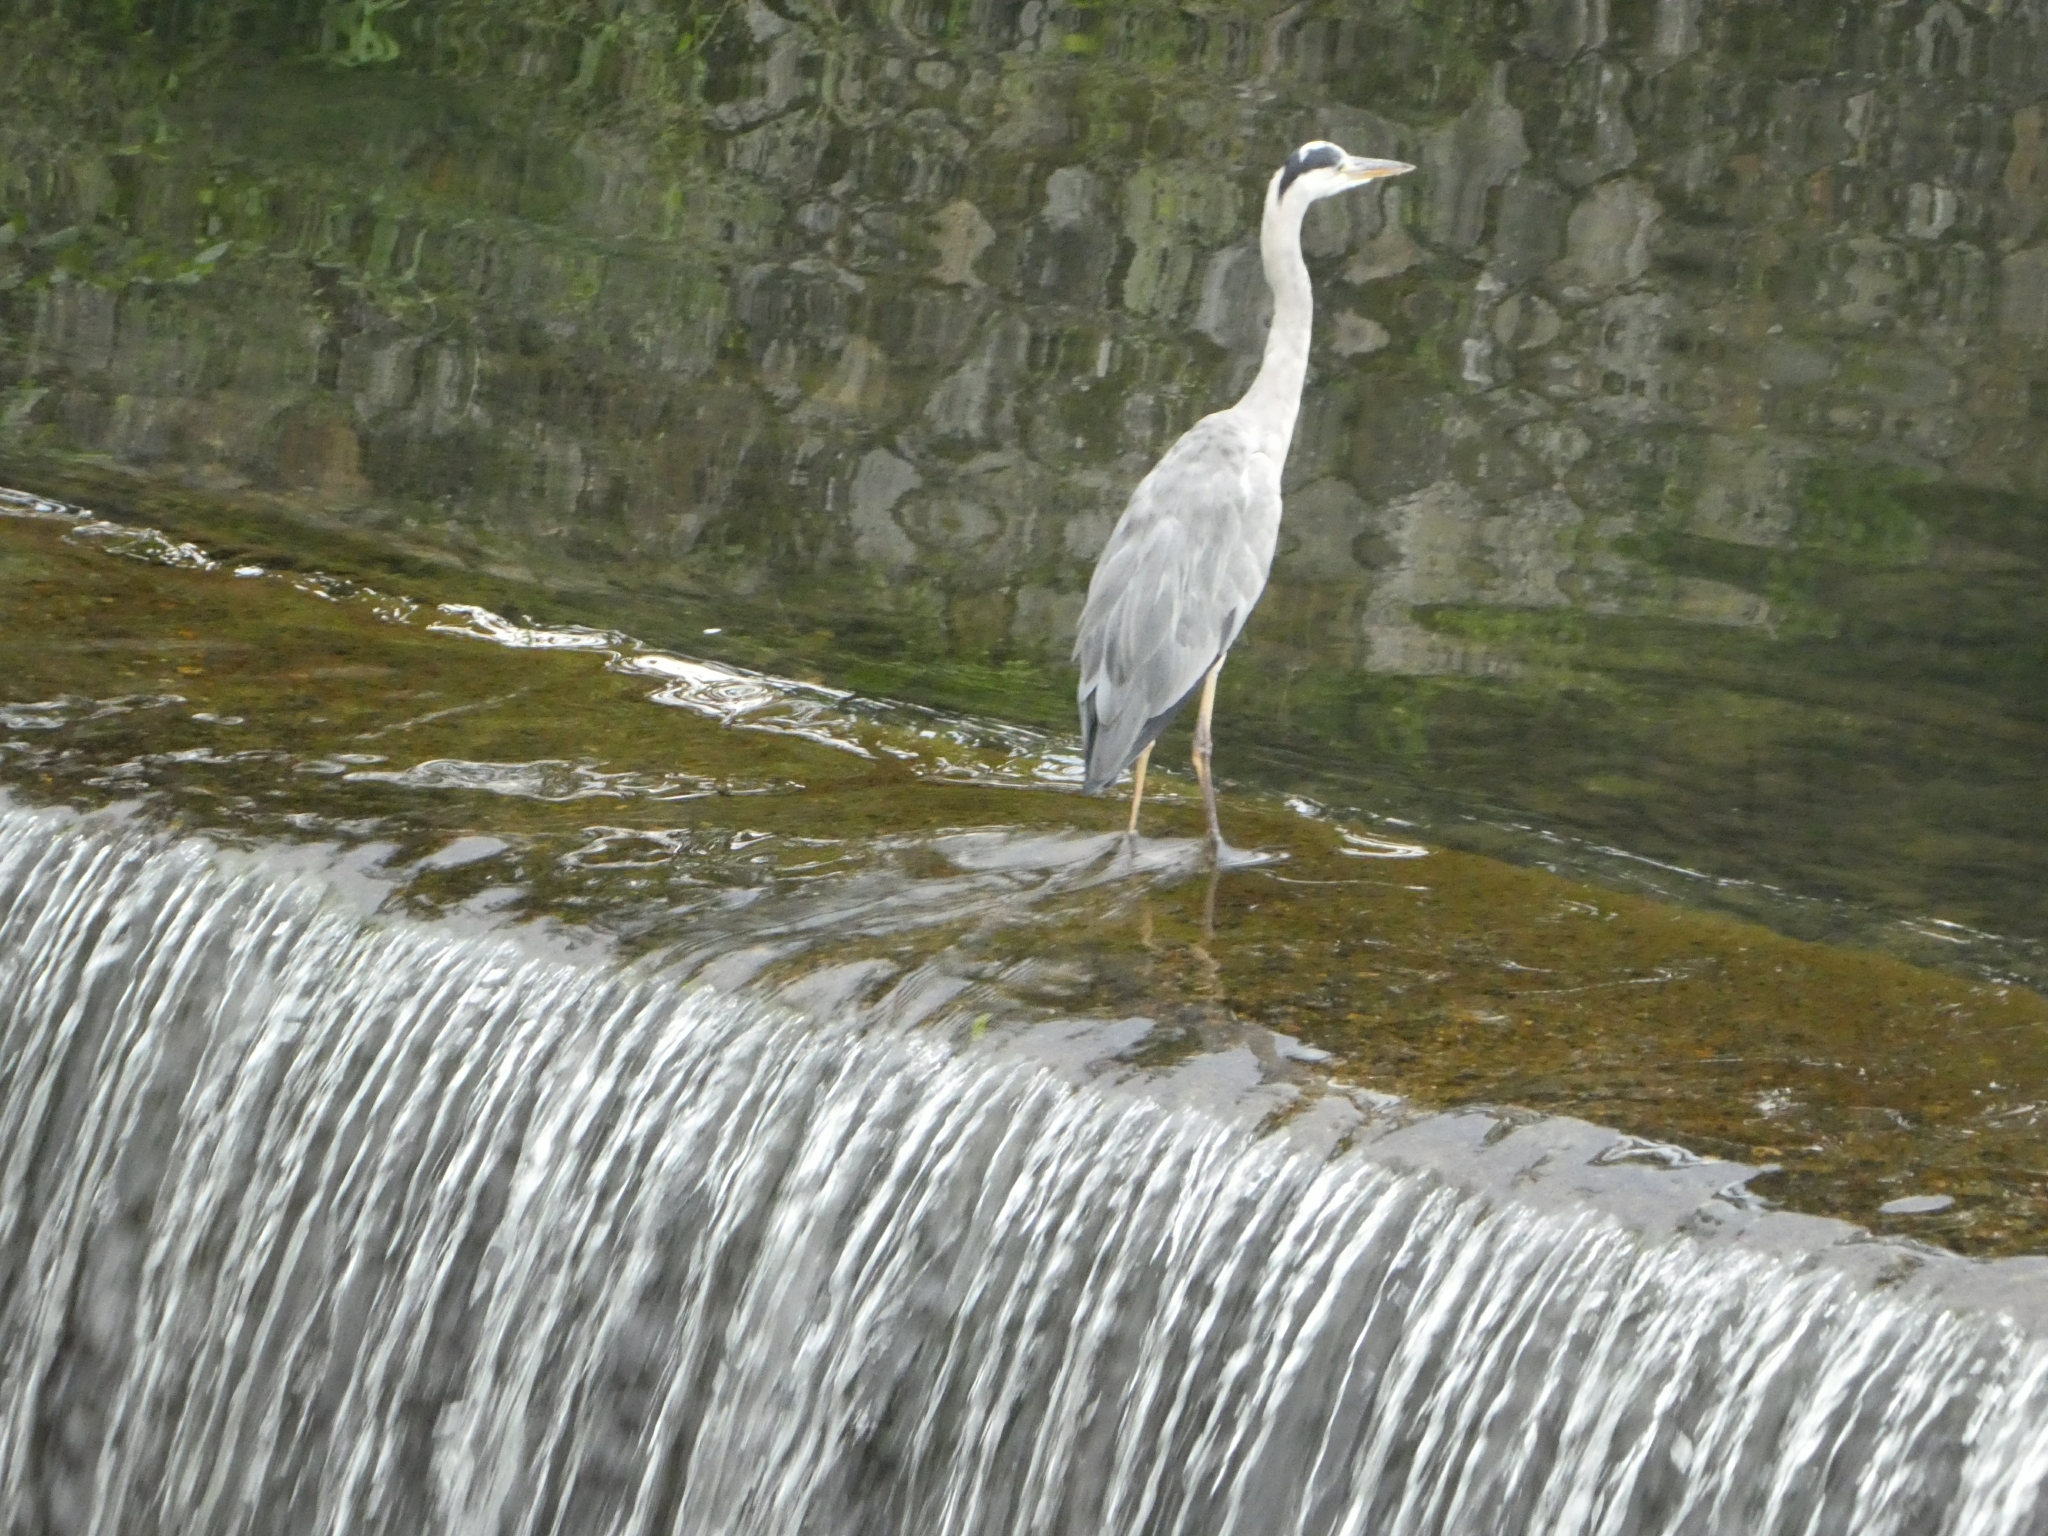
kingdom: Animalia
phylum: Chordata
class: Aves
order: Pelecaniformes
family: Ardeidae
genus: Ardea
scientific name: Ardea cinerea
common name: Grey heron
